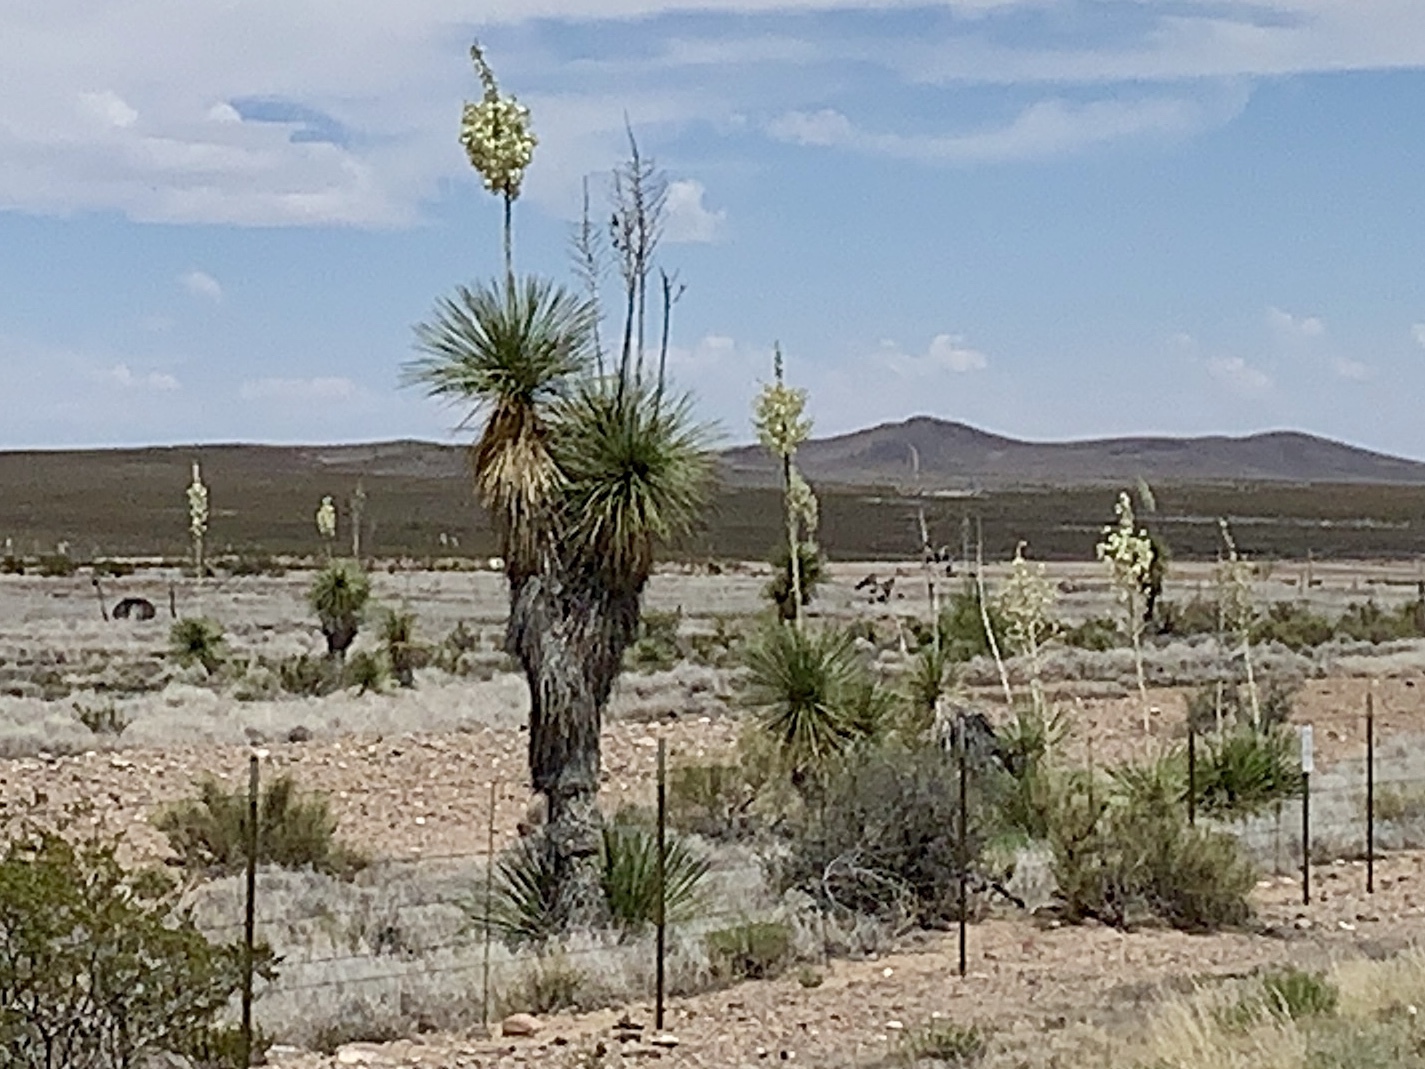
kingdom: Plantae
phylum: Tracheophyta
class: Liliopsida
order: Asparagales
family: Asparagaceae
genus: Yucca
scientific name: Yucca elata
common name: Palmella
